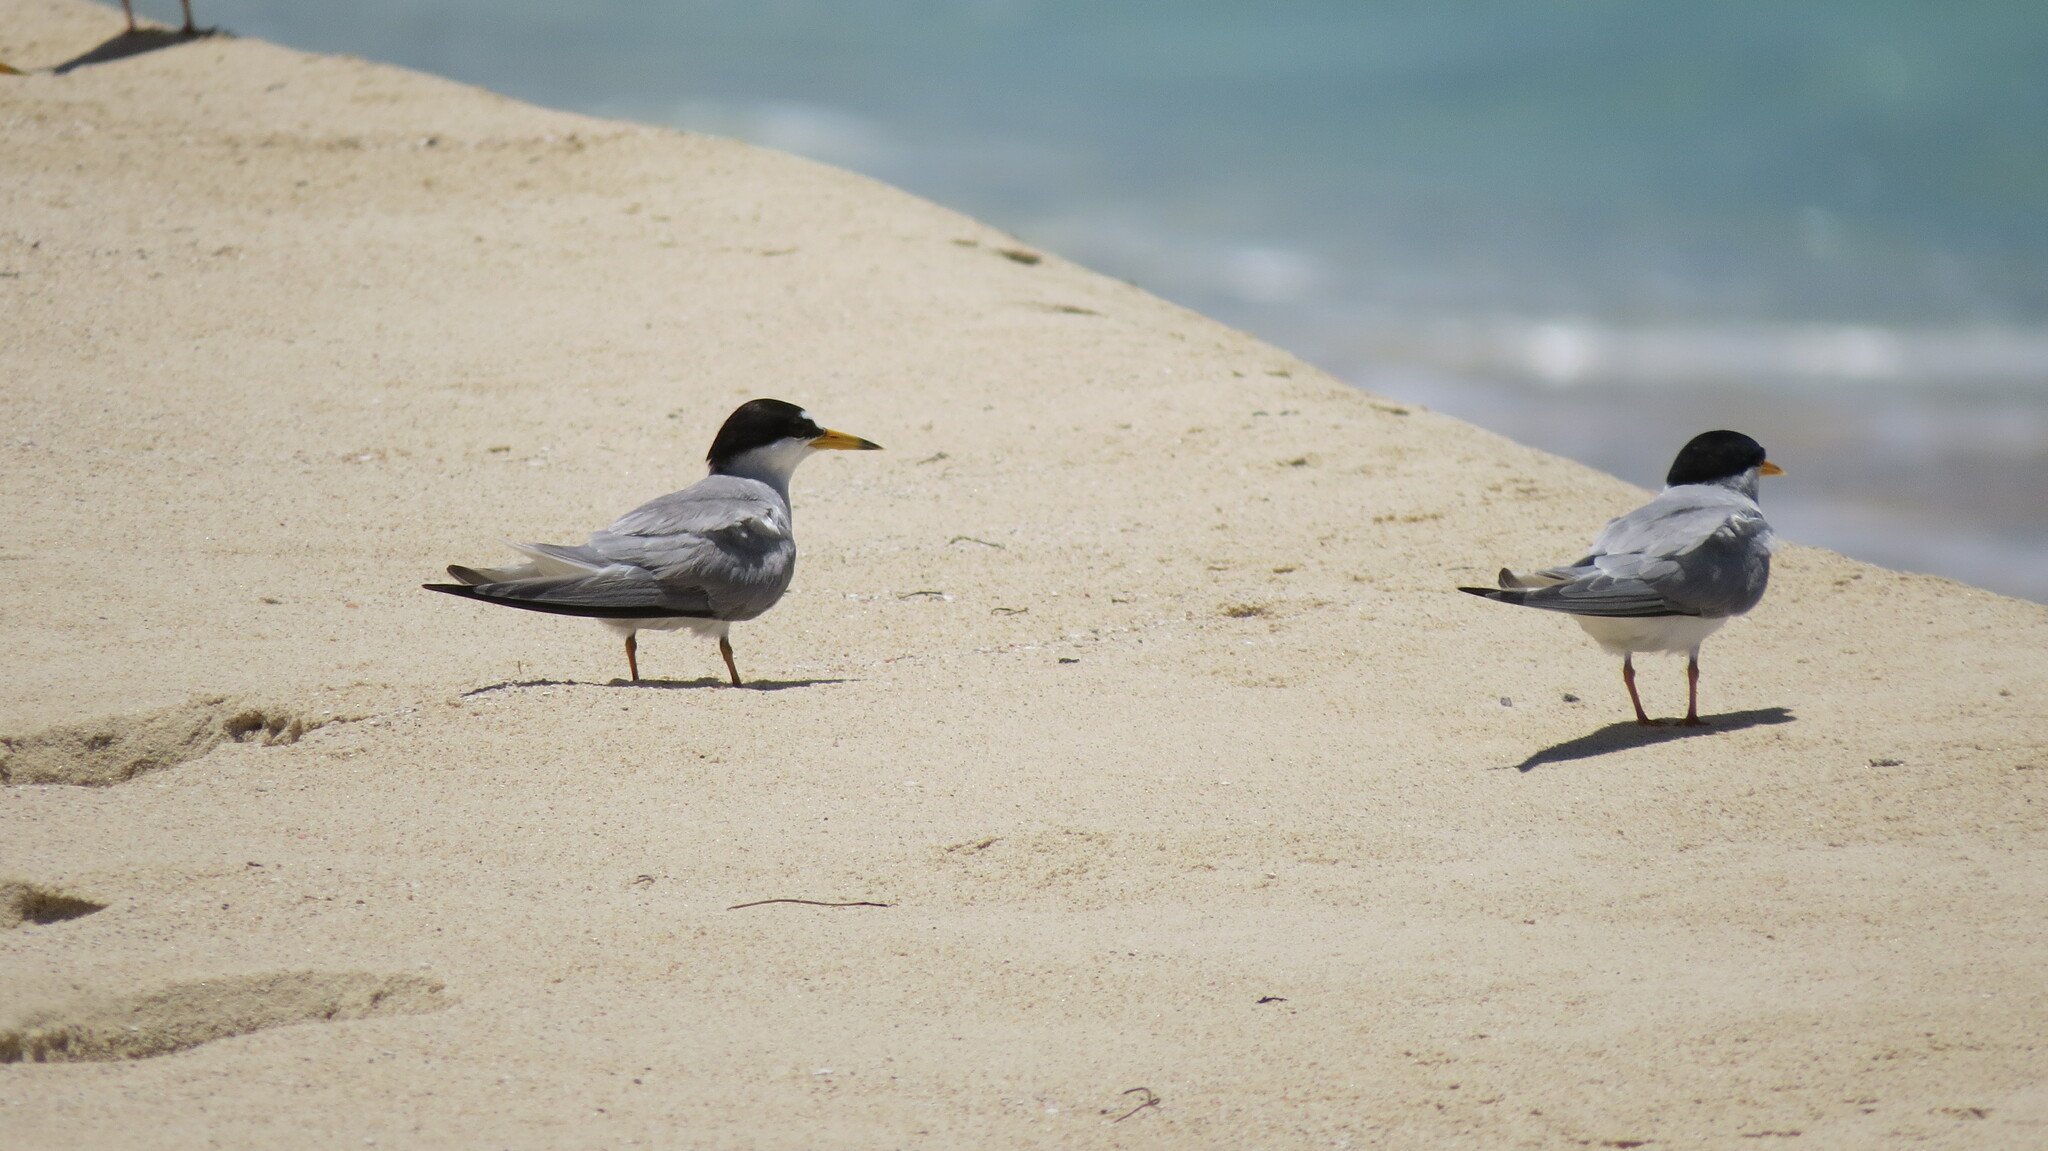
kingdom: Animalia
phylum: Chordata
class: Aves
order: Charadriiformes
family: Laridae
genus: Sternula
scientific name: Sternula antillarum
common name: Least tern
